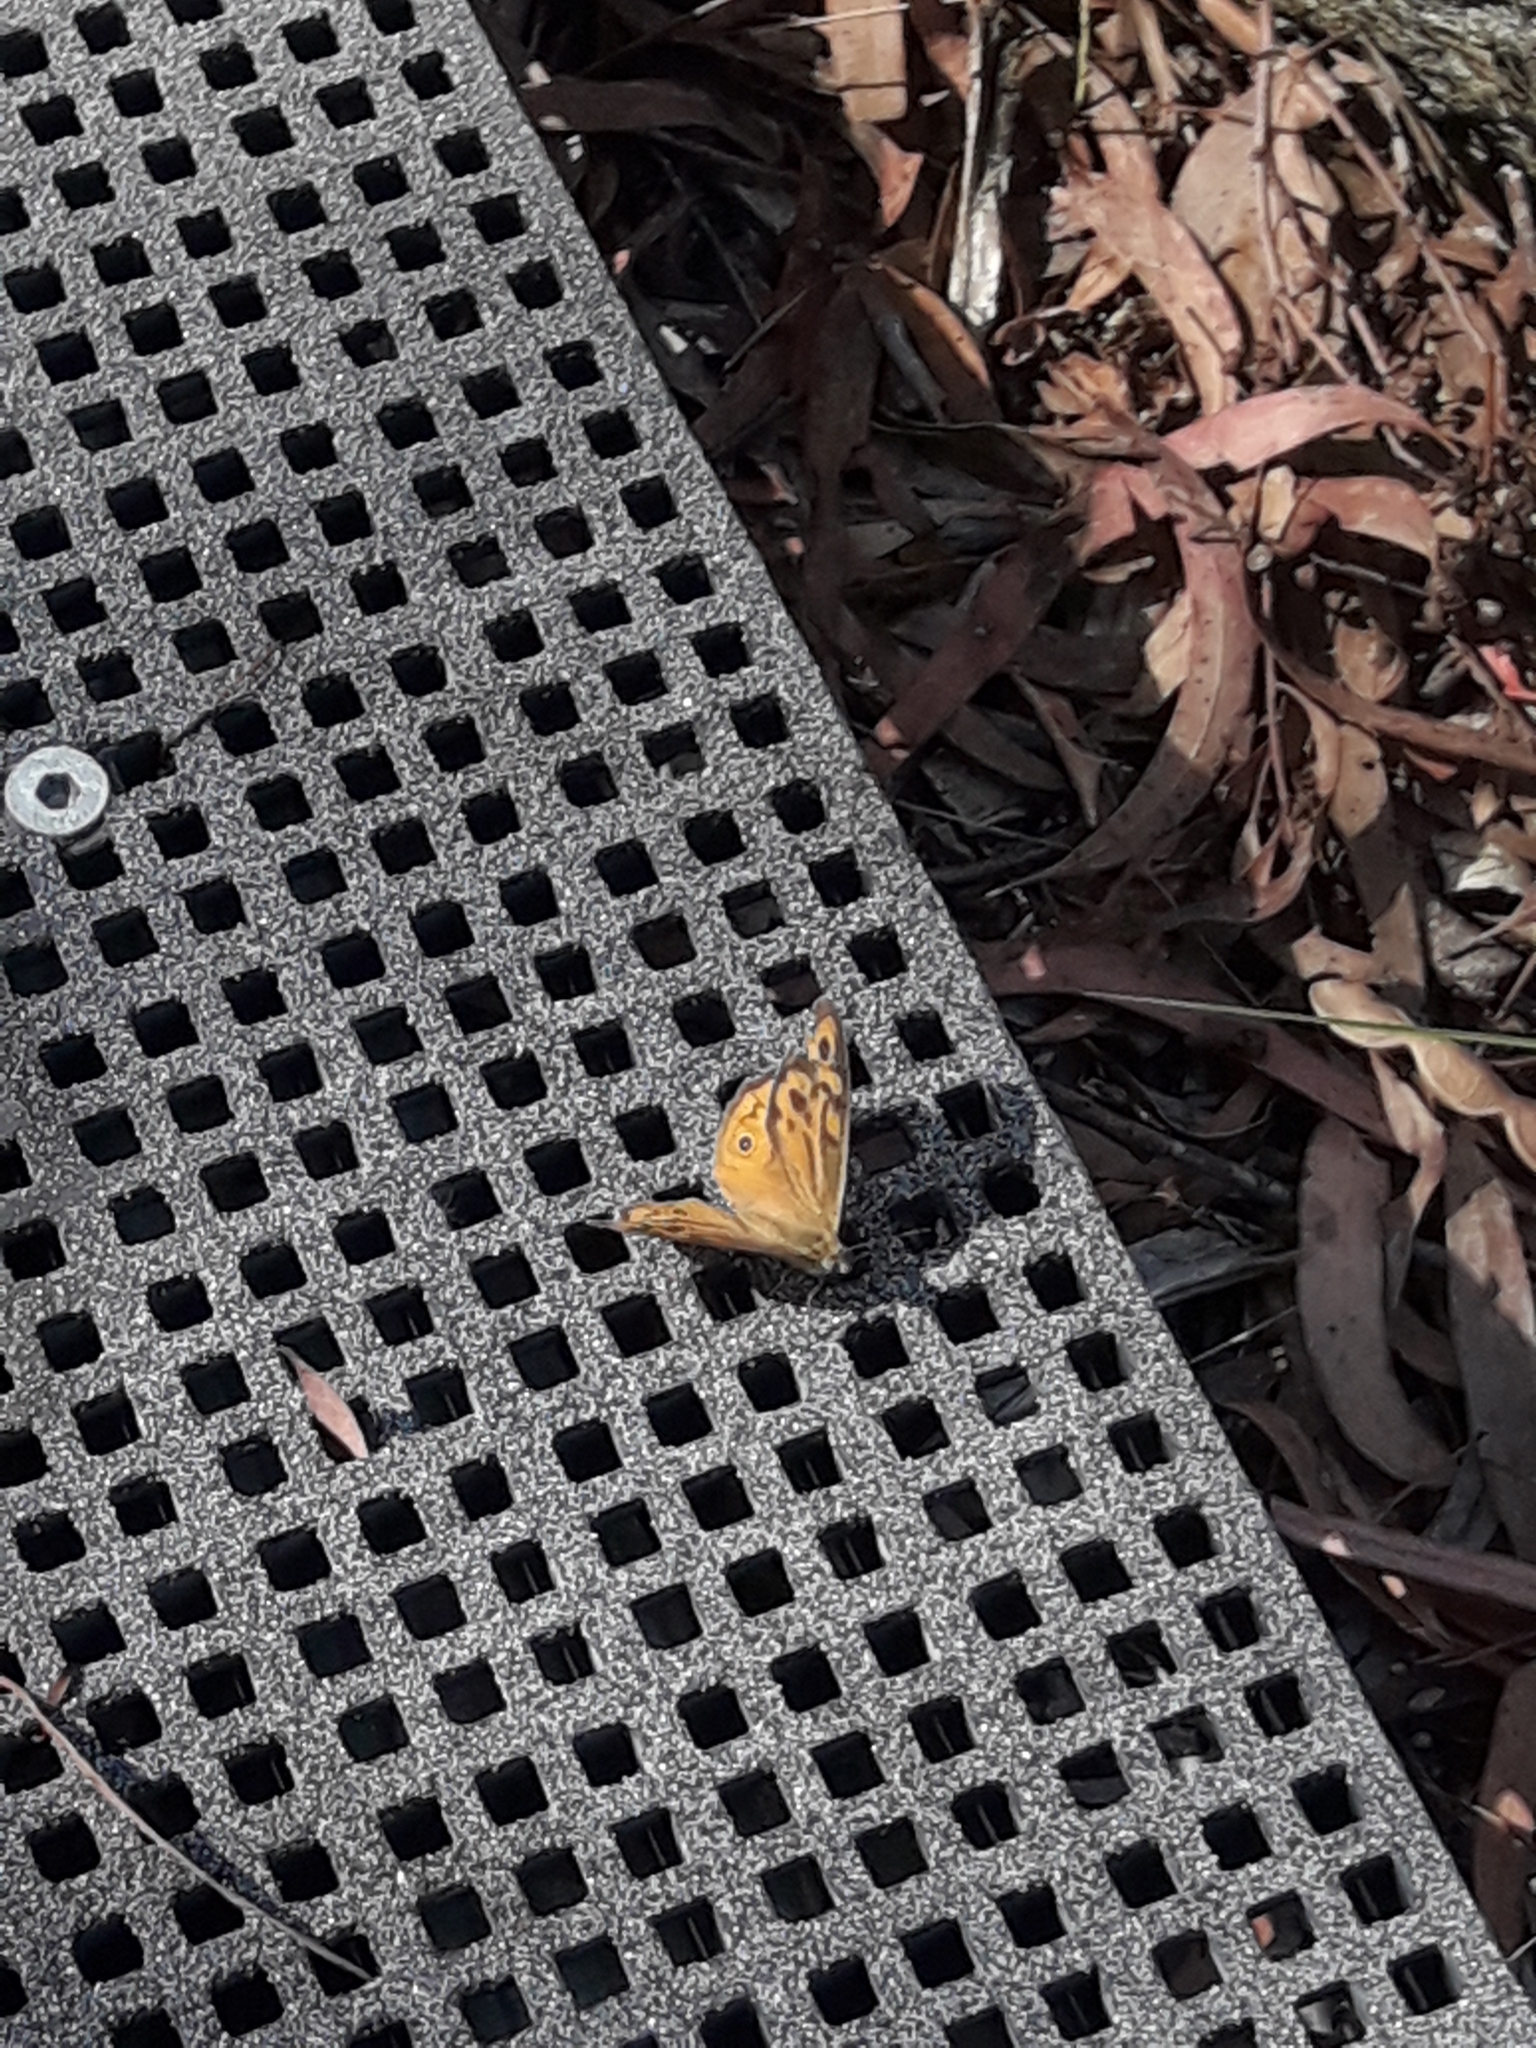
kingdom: Animalia
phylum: Arthropoda
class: Insecta
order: Lepidoptera
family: Nymphalidae
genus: Heteronympha
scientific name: Heteronympha merope
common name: Common brown
